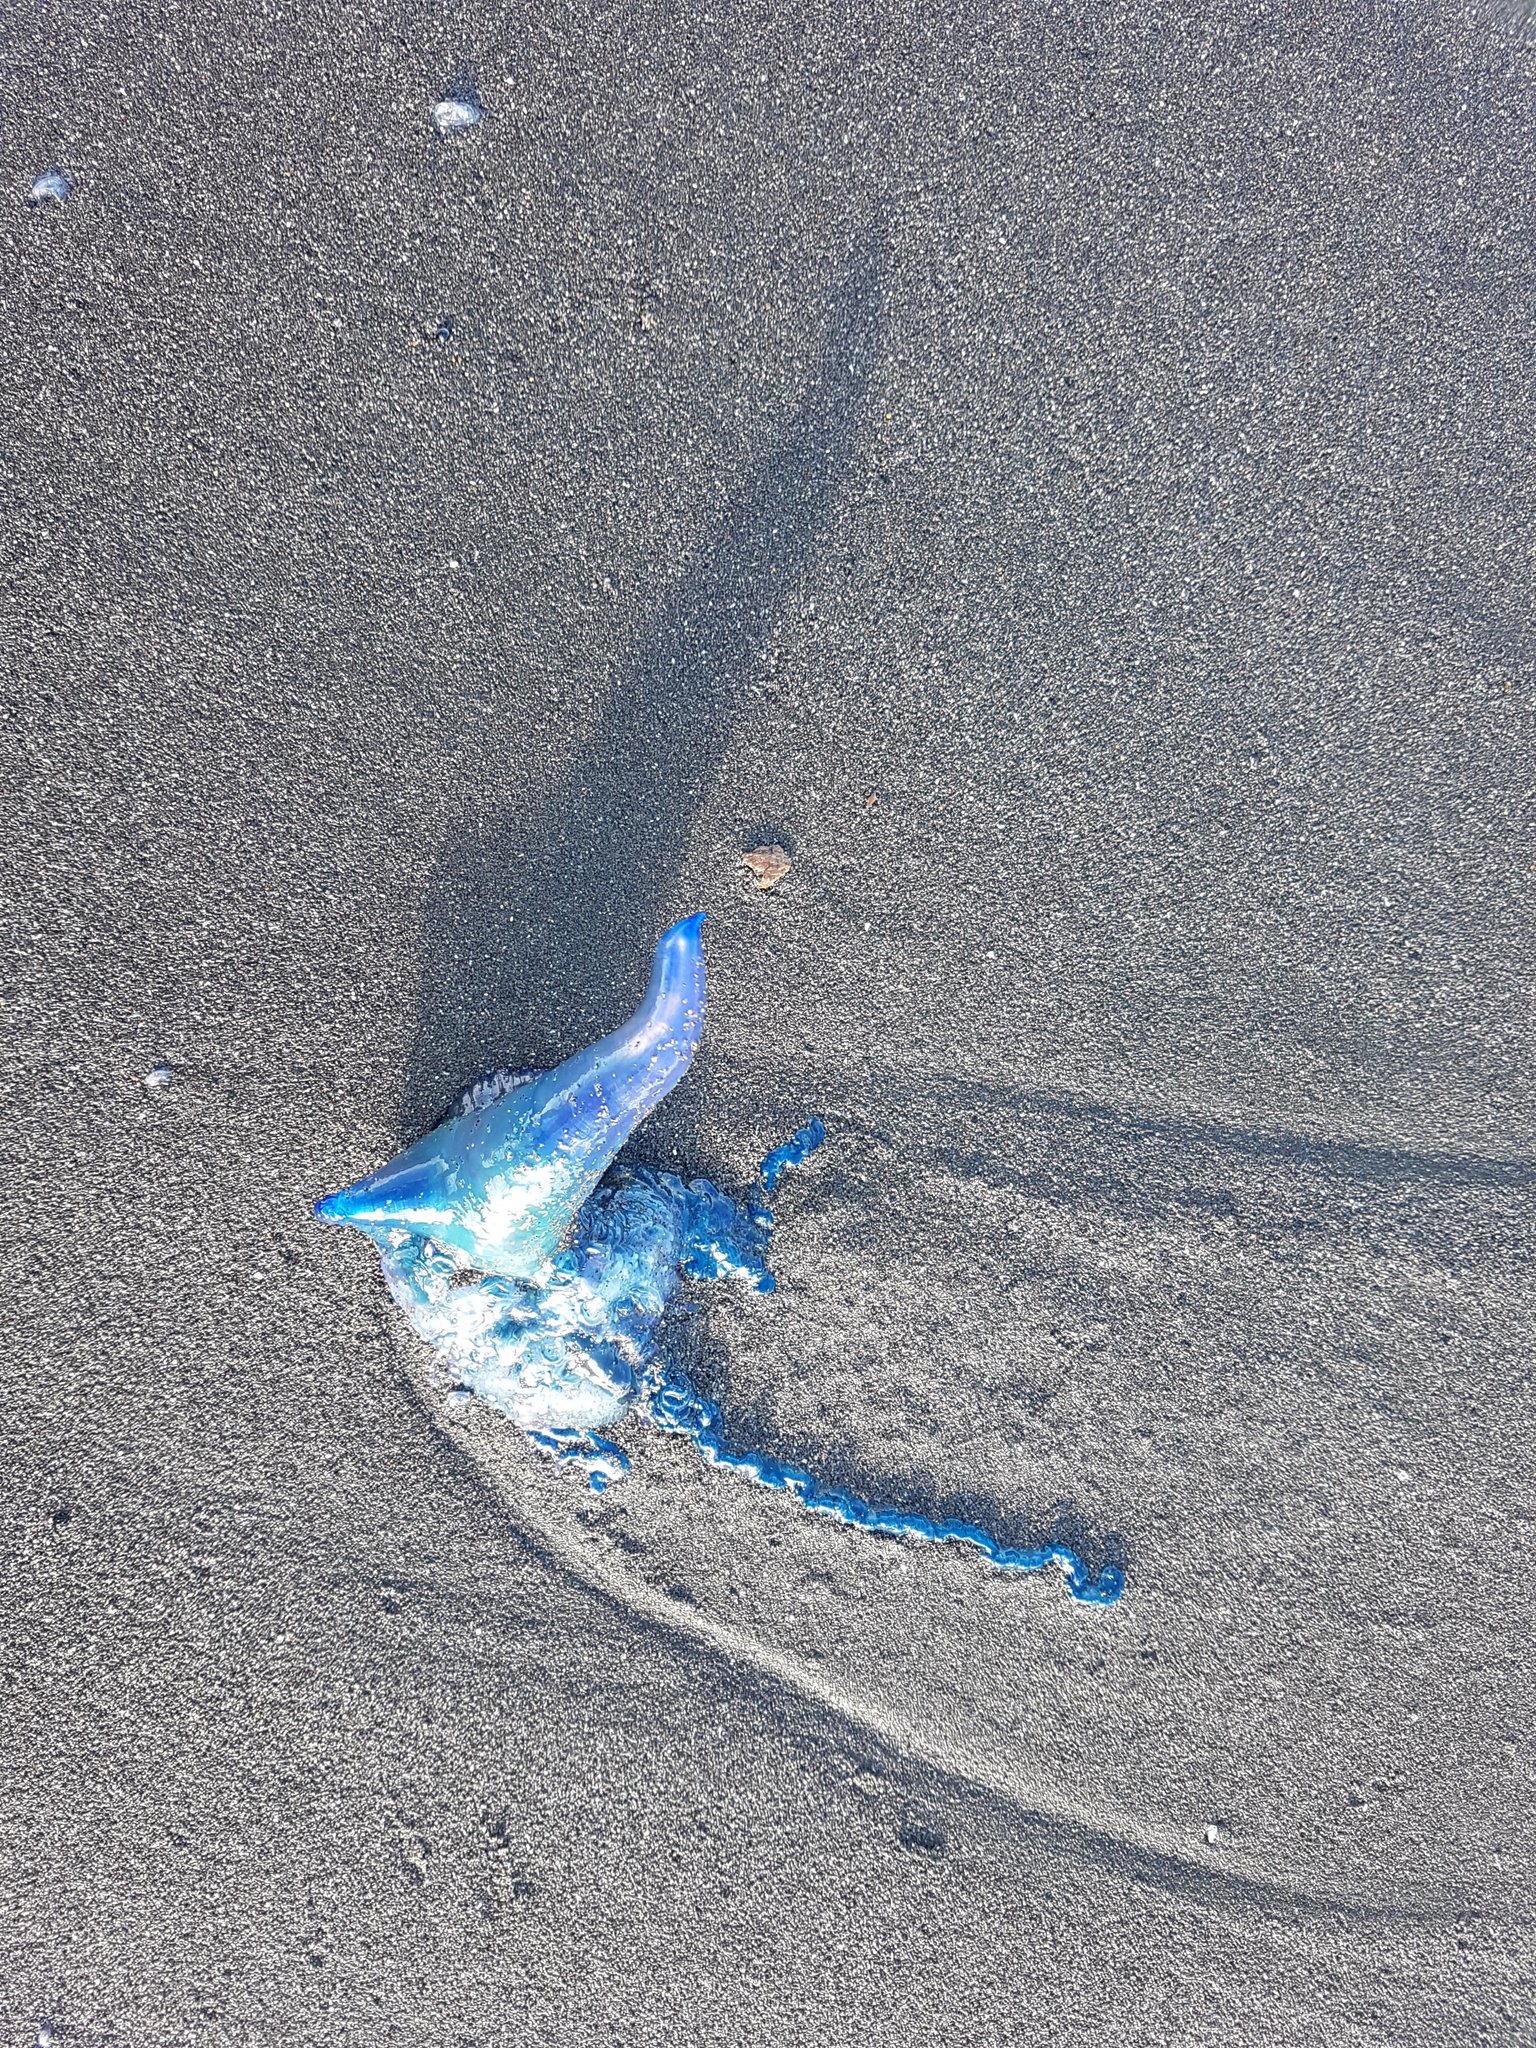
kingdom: Animalia
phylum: Cnidaria
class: Hydrozoa
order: Siphonophorae
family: Physaliidae
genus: Physalia
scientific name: Physalia physalis
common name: Portuguese man-of-war
